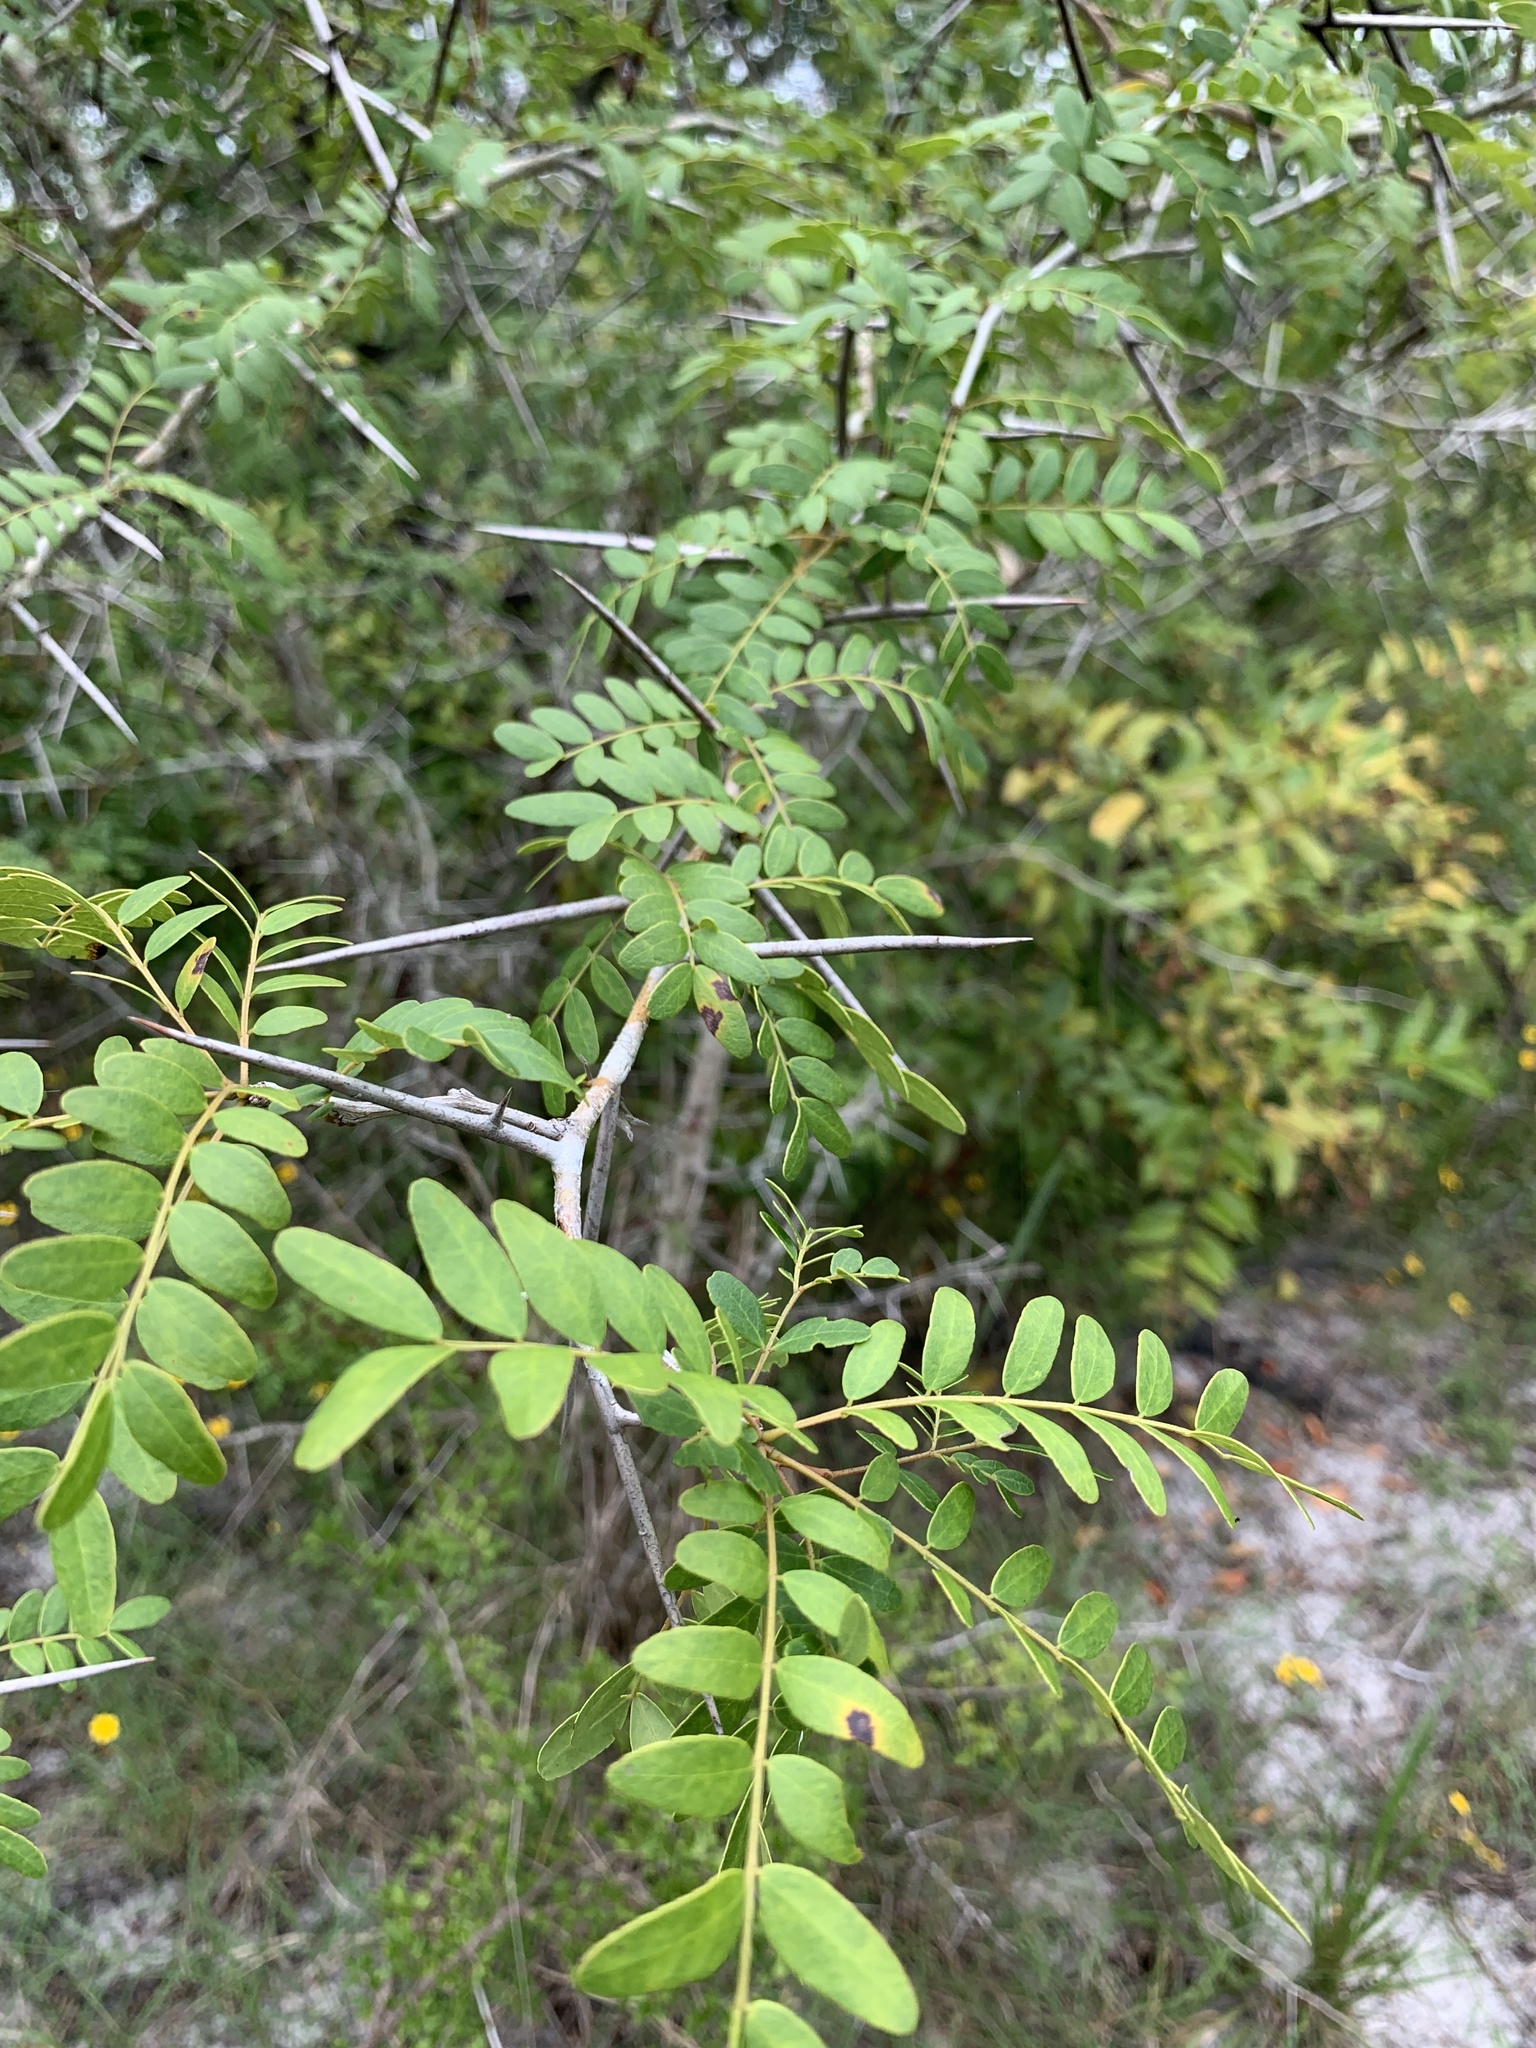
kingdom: Plantae
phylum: Tracheophyta
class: Magnoliopsida
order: Fabales
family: Fabaceae
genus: Gleditsia
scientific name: Gleditsia aquatica
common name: Swamp-locust
